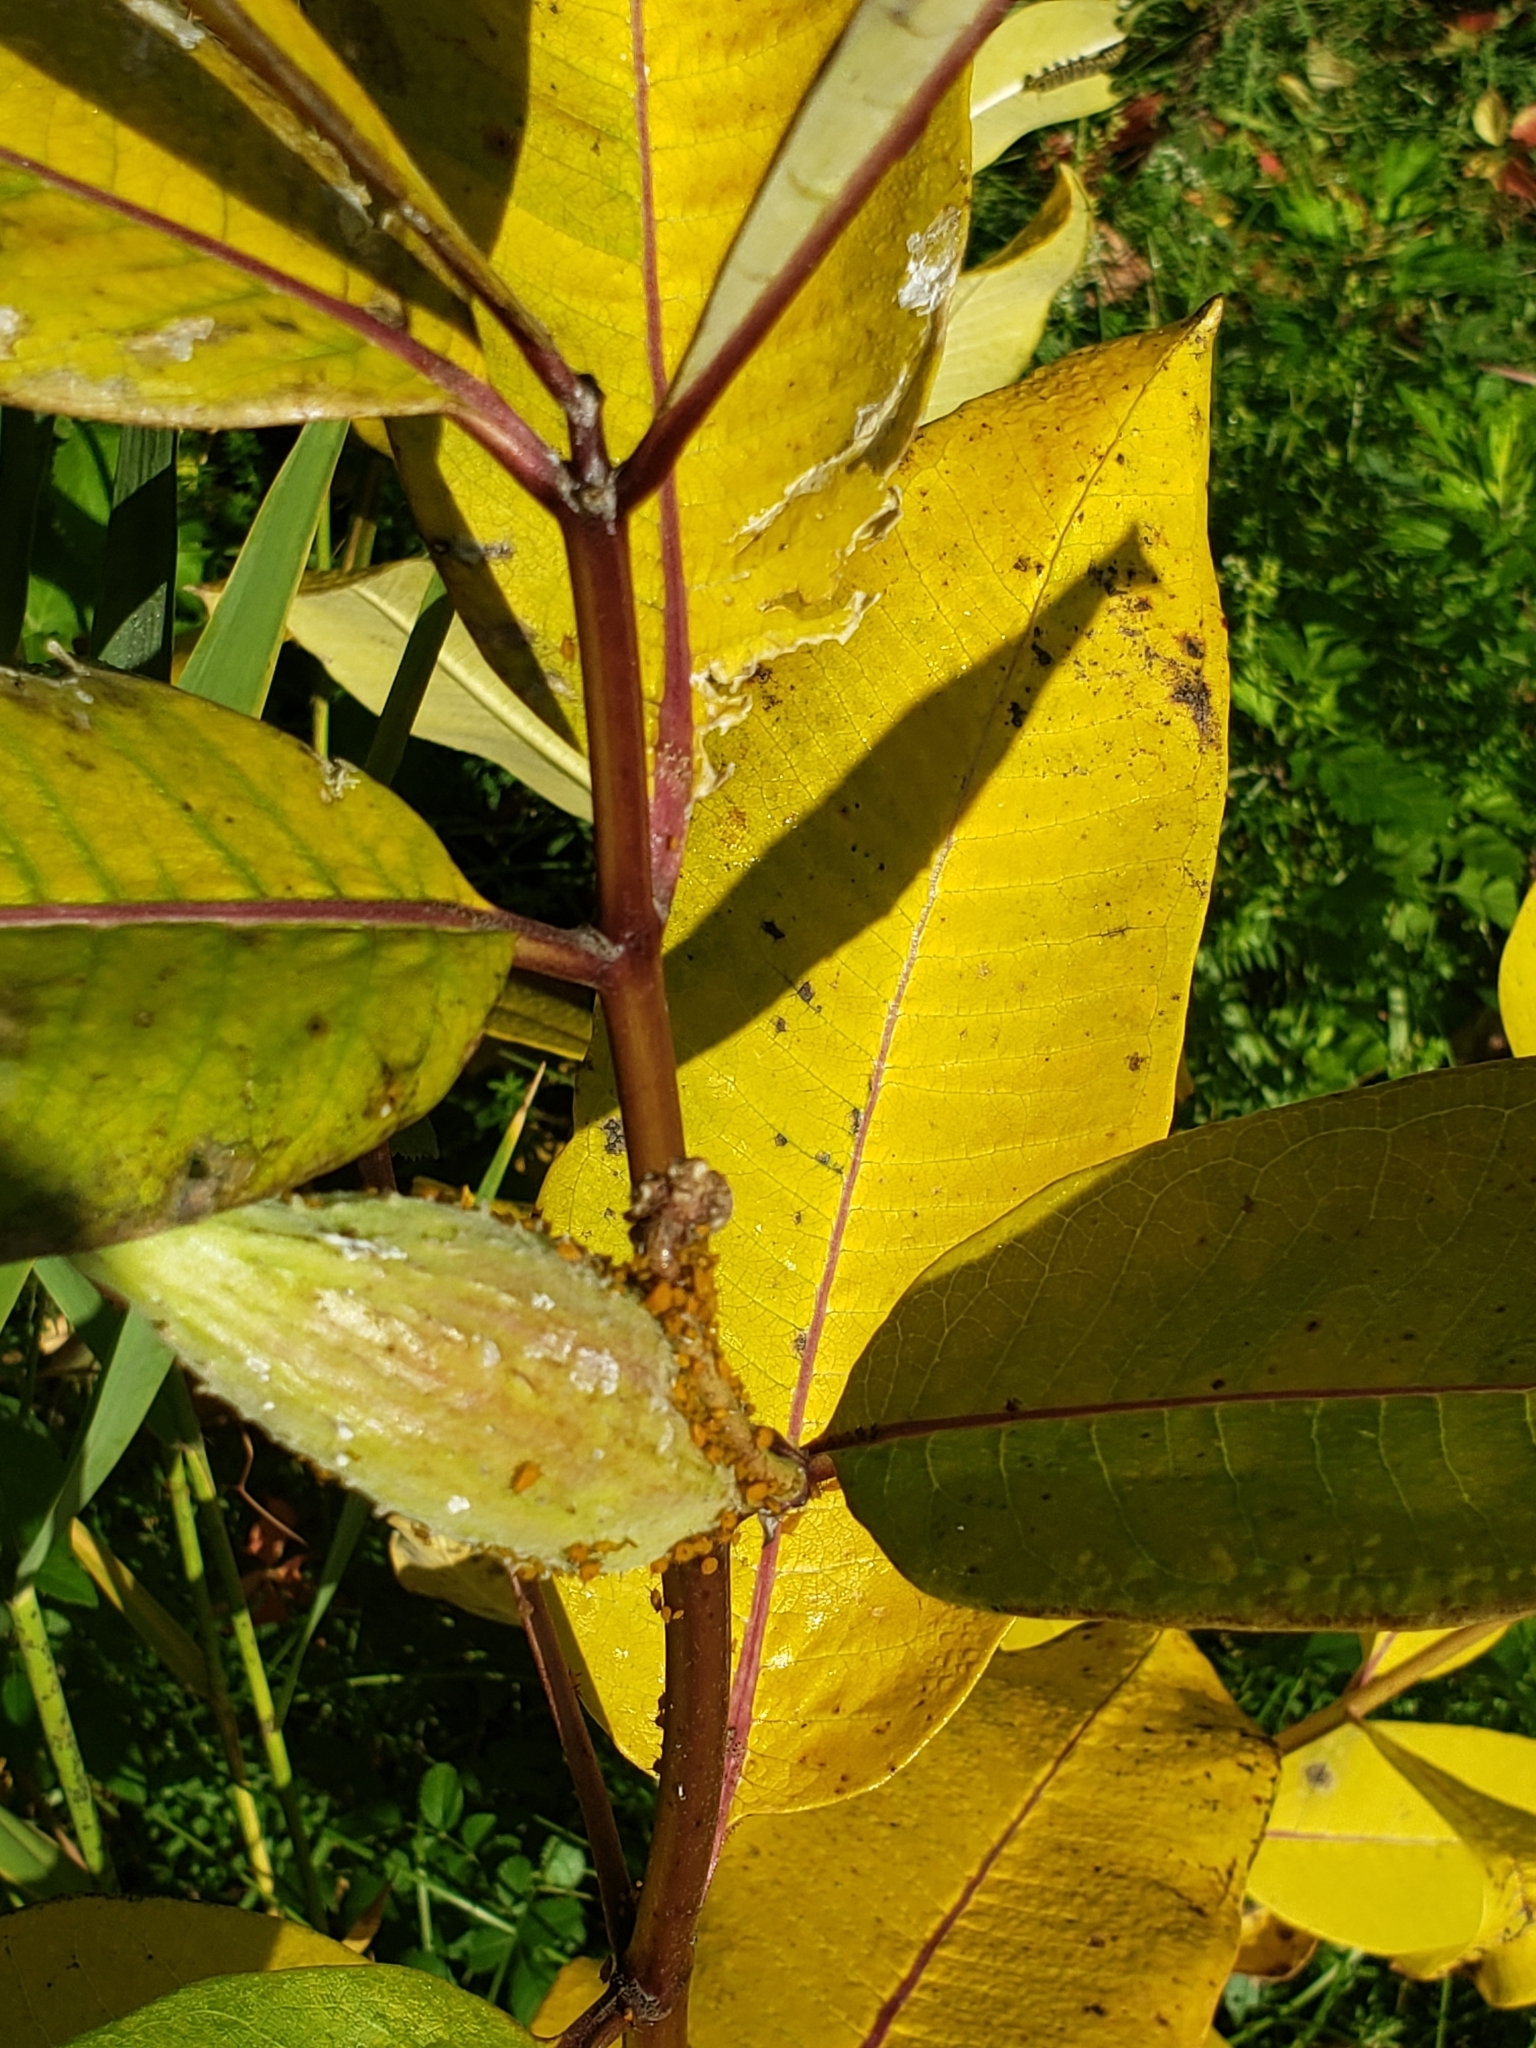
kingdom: Plantae
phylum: Tracheophyta
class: Magnoliopsida
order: Gentianales
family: Apocynaceae
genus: Asclepias
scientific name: Asclepias syriaca
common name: Common milkweed
